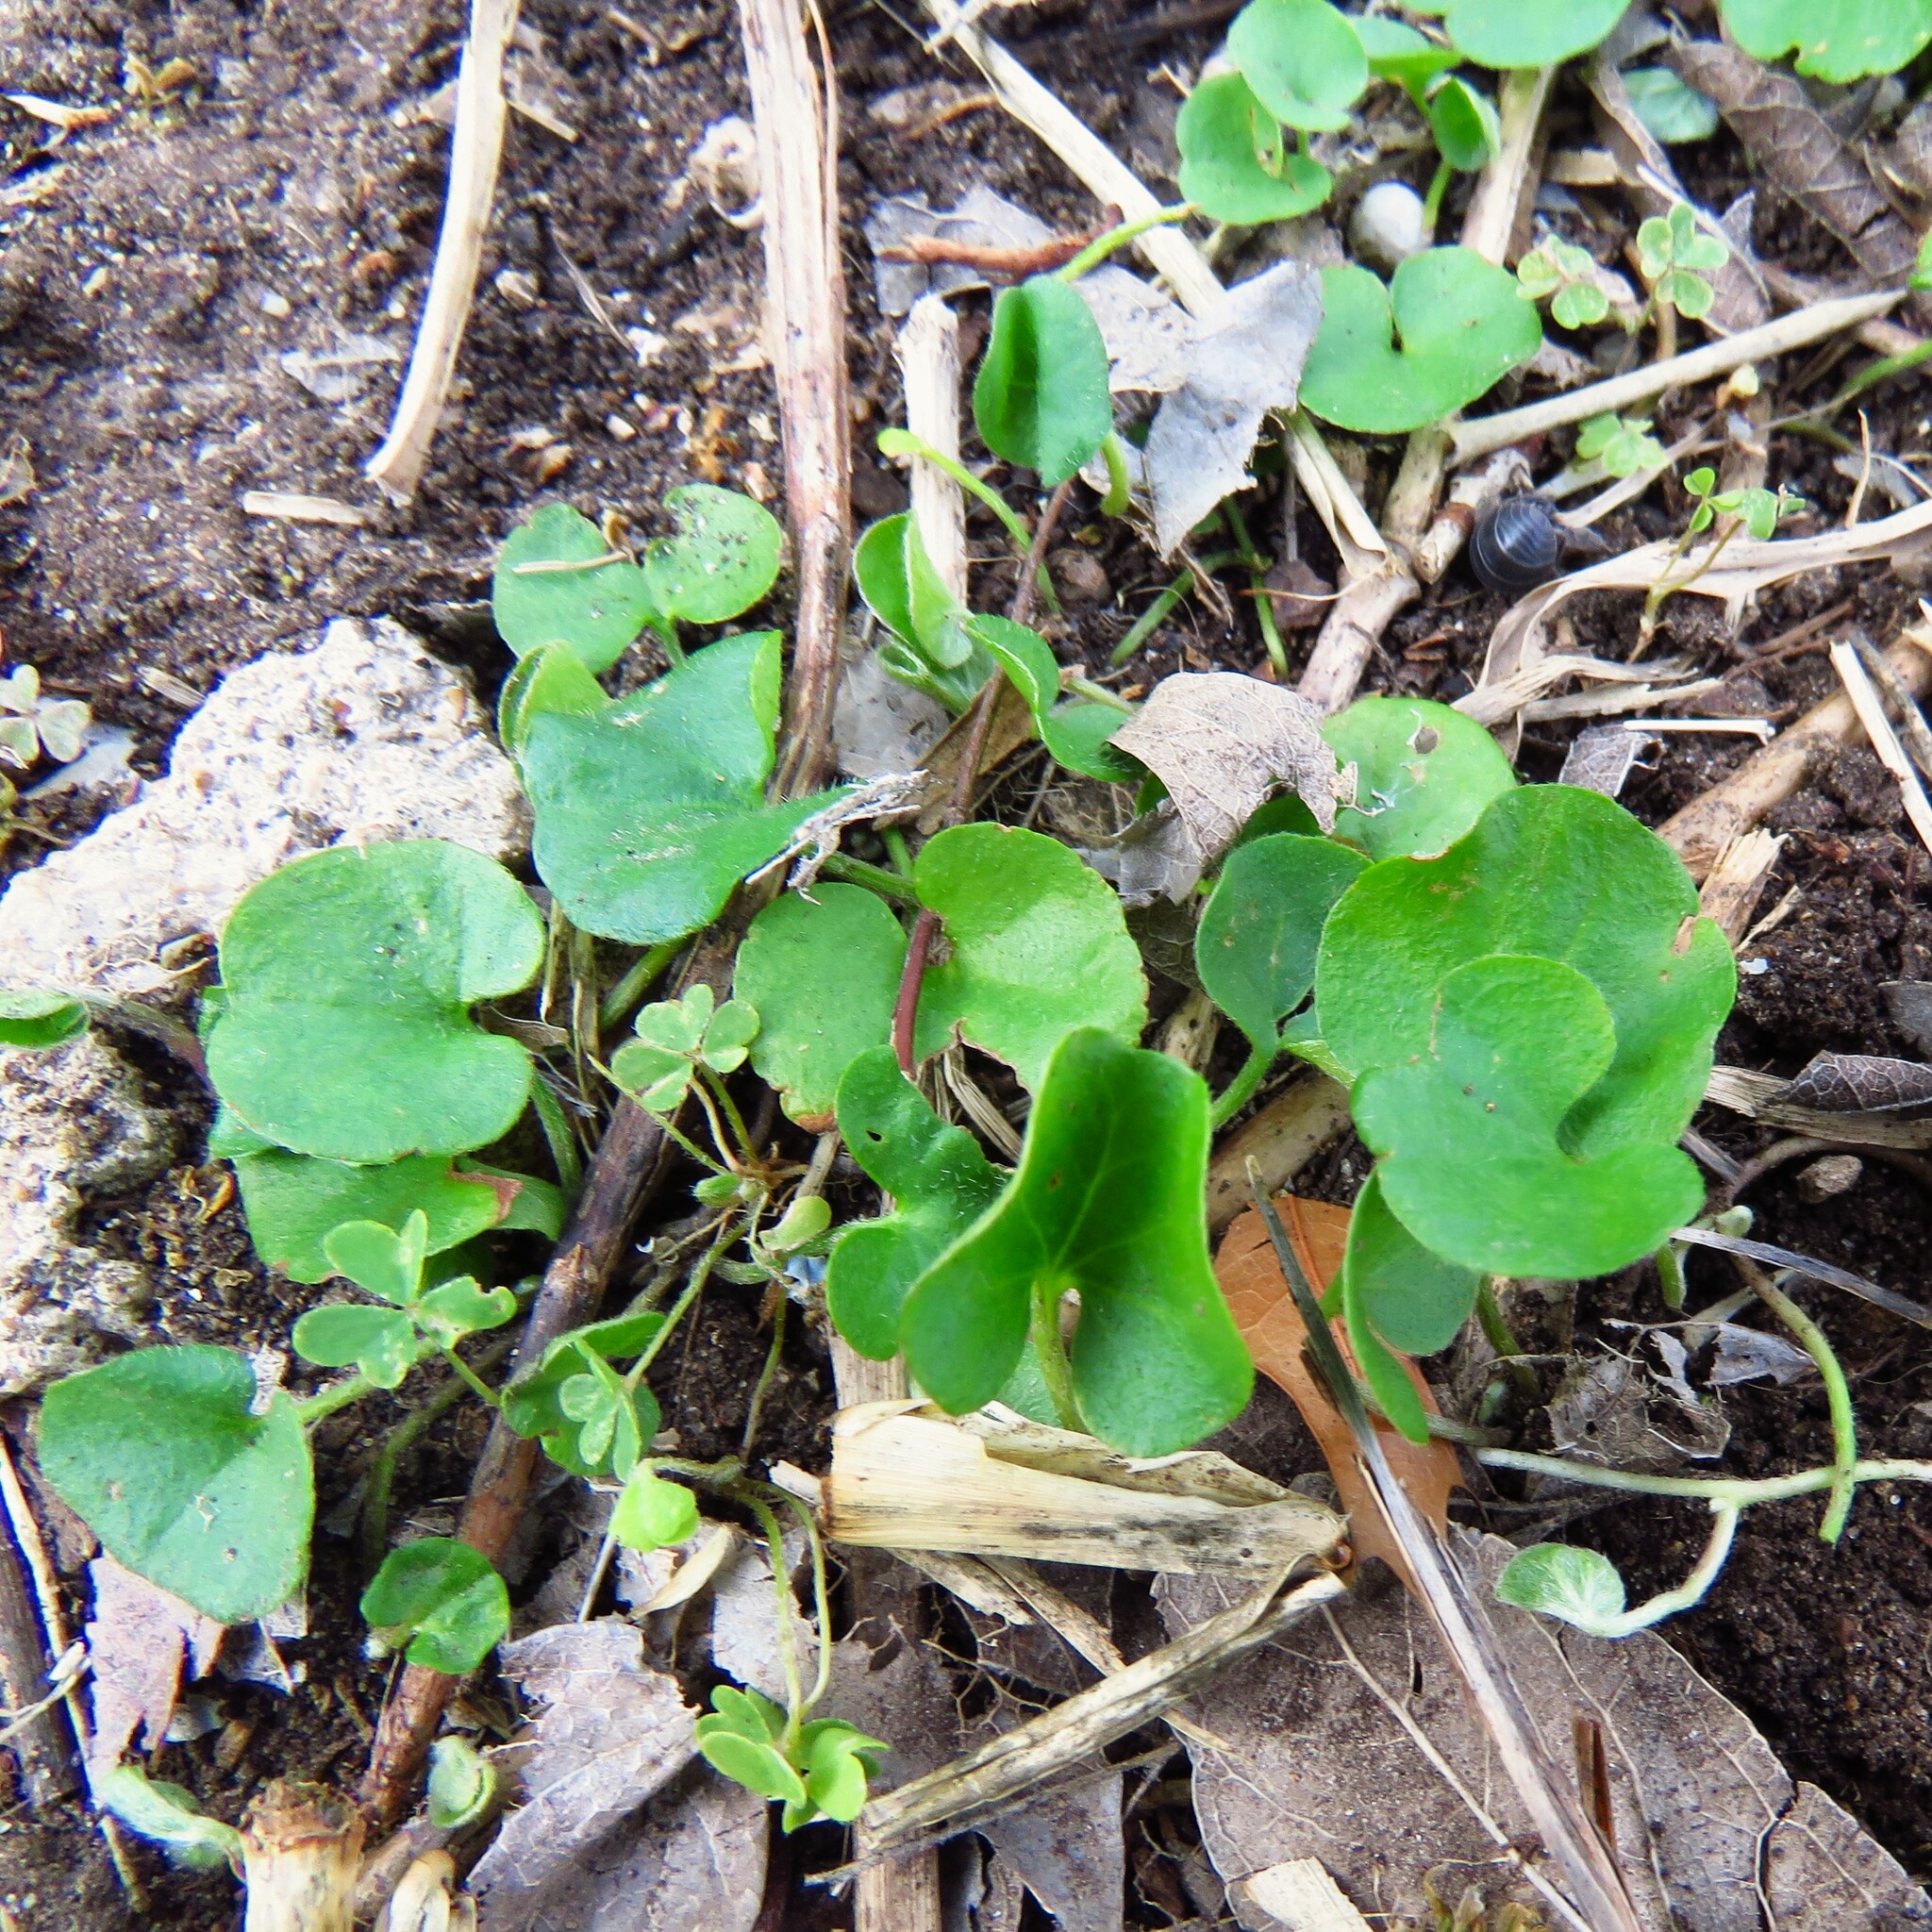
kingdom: Plantae
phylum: Tracheophyta
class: Magnoliopsida
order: Solanales
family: Convolvulaceae
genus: Dichondra
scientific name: Dichondra carolinensis
